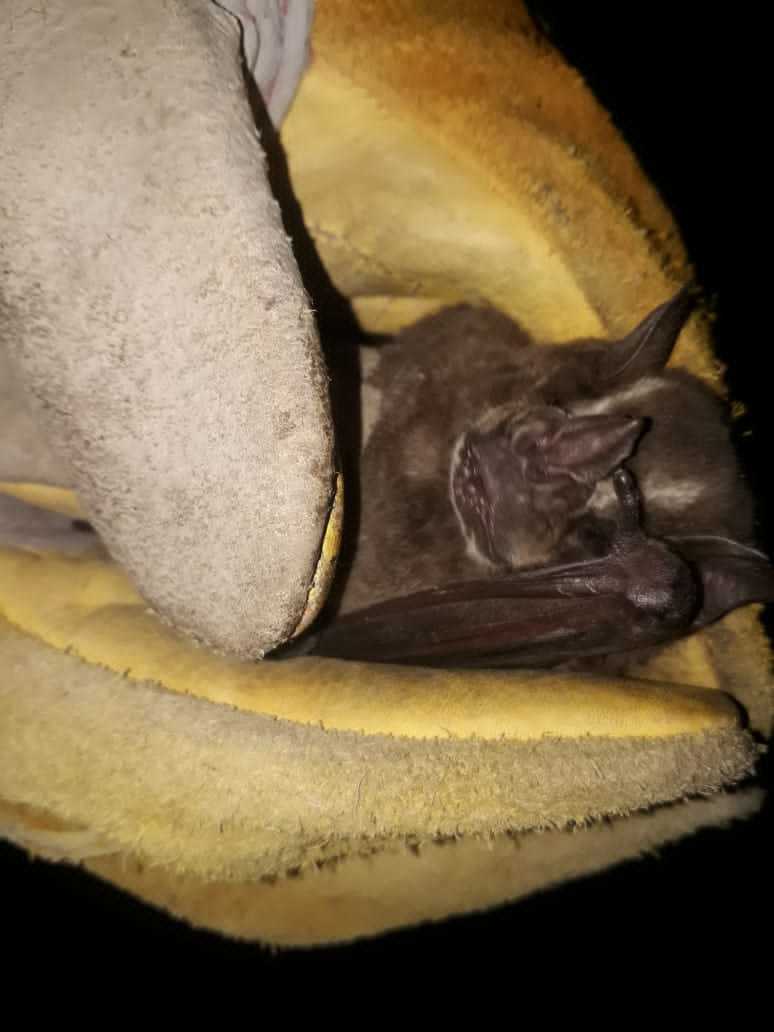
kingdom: Animalia
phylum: Chordata
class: Mammalia
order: Chiroptera
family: Phyllostomidae
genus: Artibeus
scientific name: Artibeus lituratus
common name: Great fruit-eating bat
